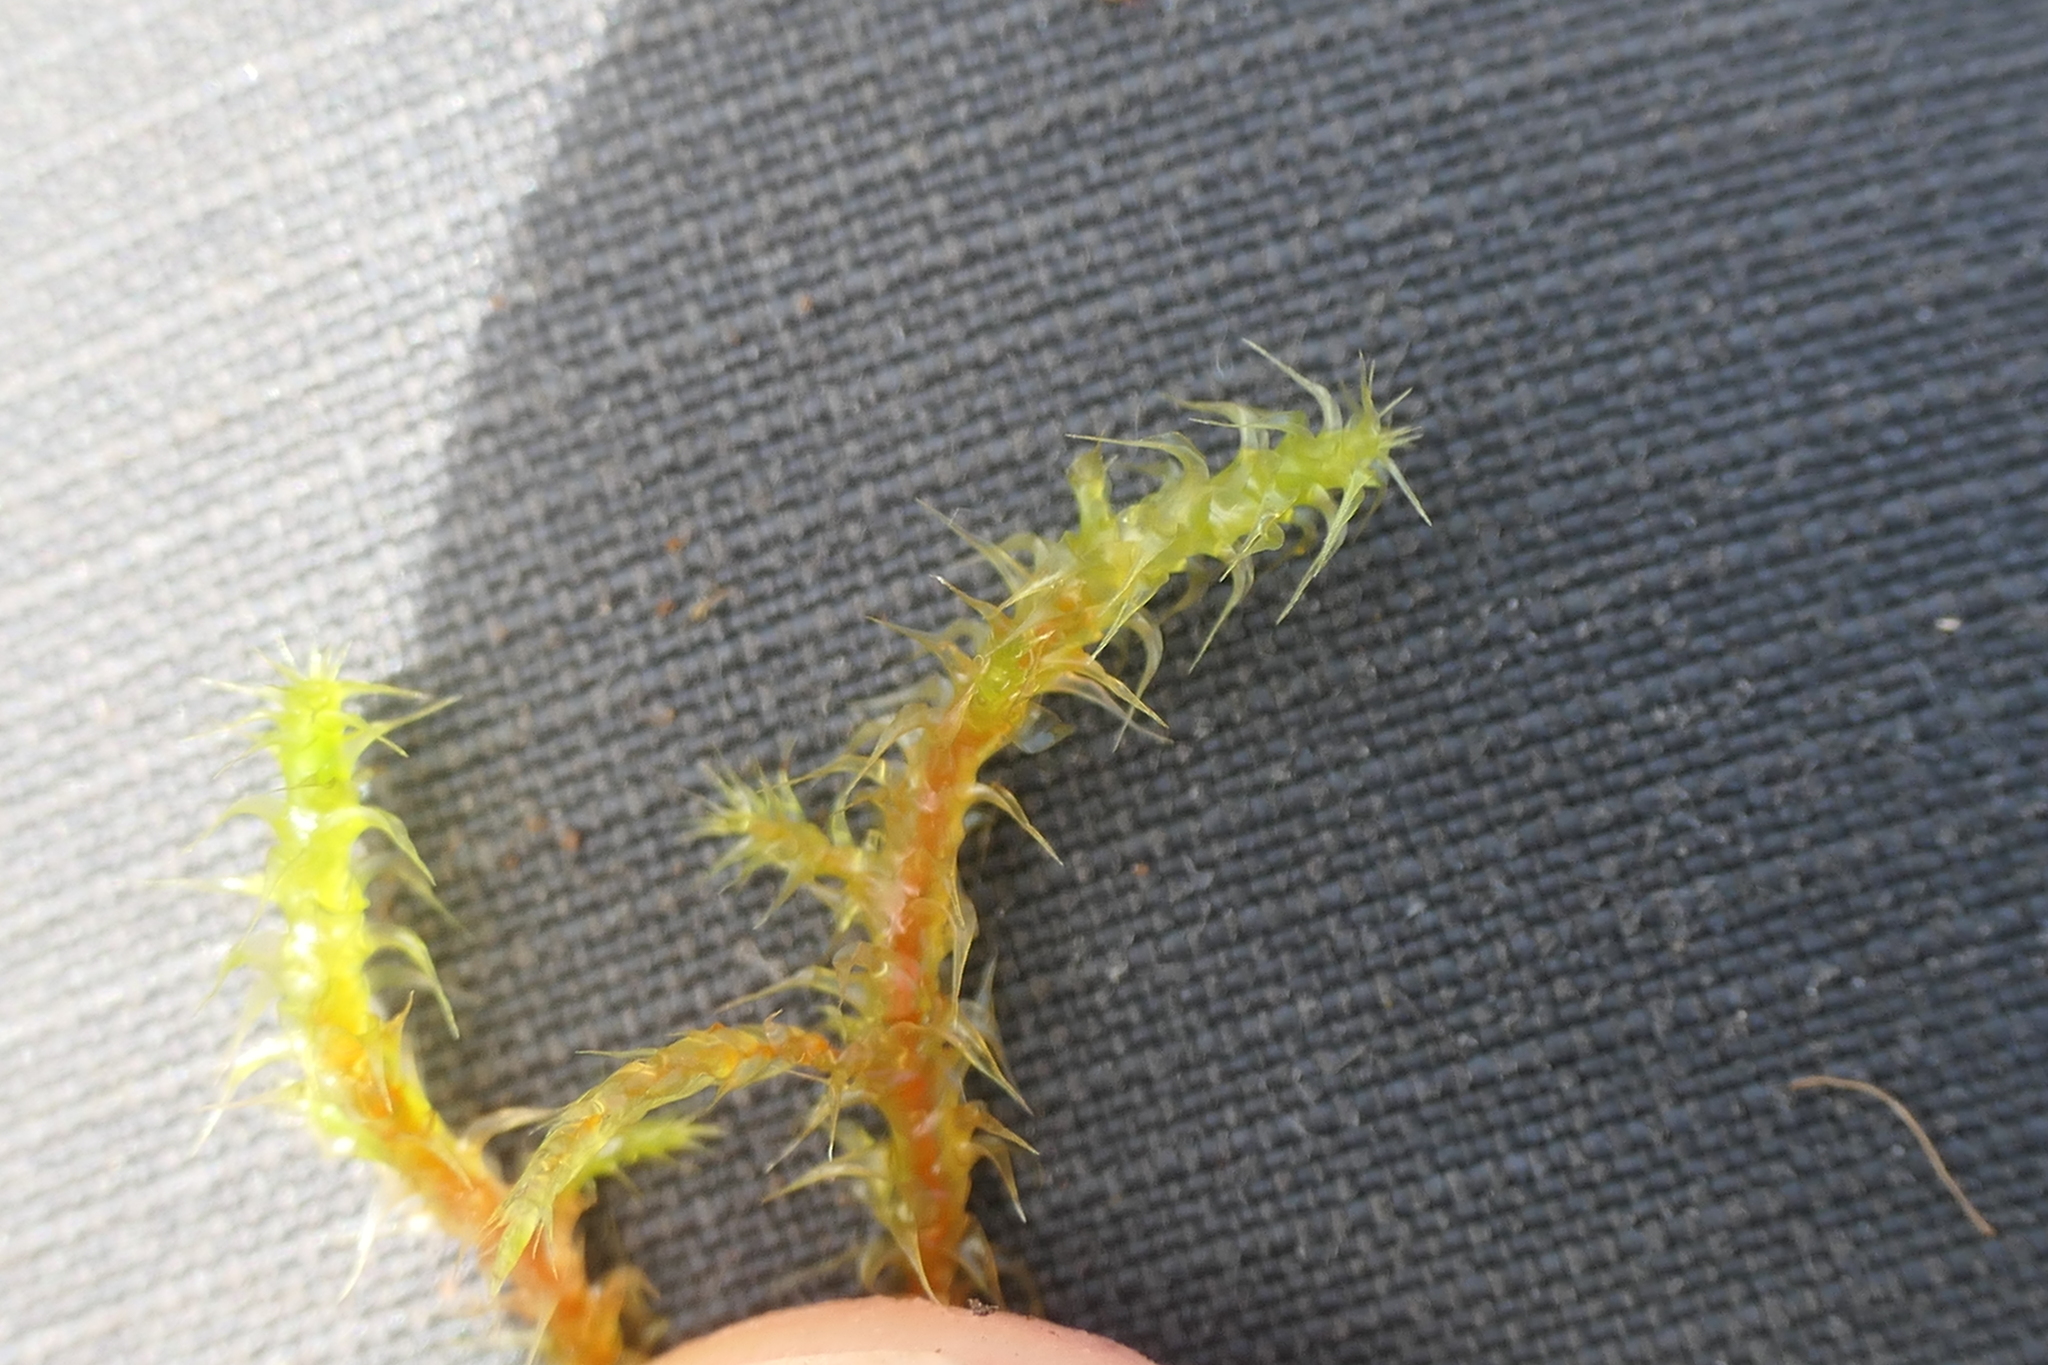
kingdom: Plantae
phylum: Bryophyta
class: Bryopsida
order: Hypnales
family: Hylocomiaceae
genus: Rhytidiadelphus
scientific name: Rhytidiadelphus squarrosus
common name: Springy turf-moss
